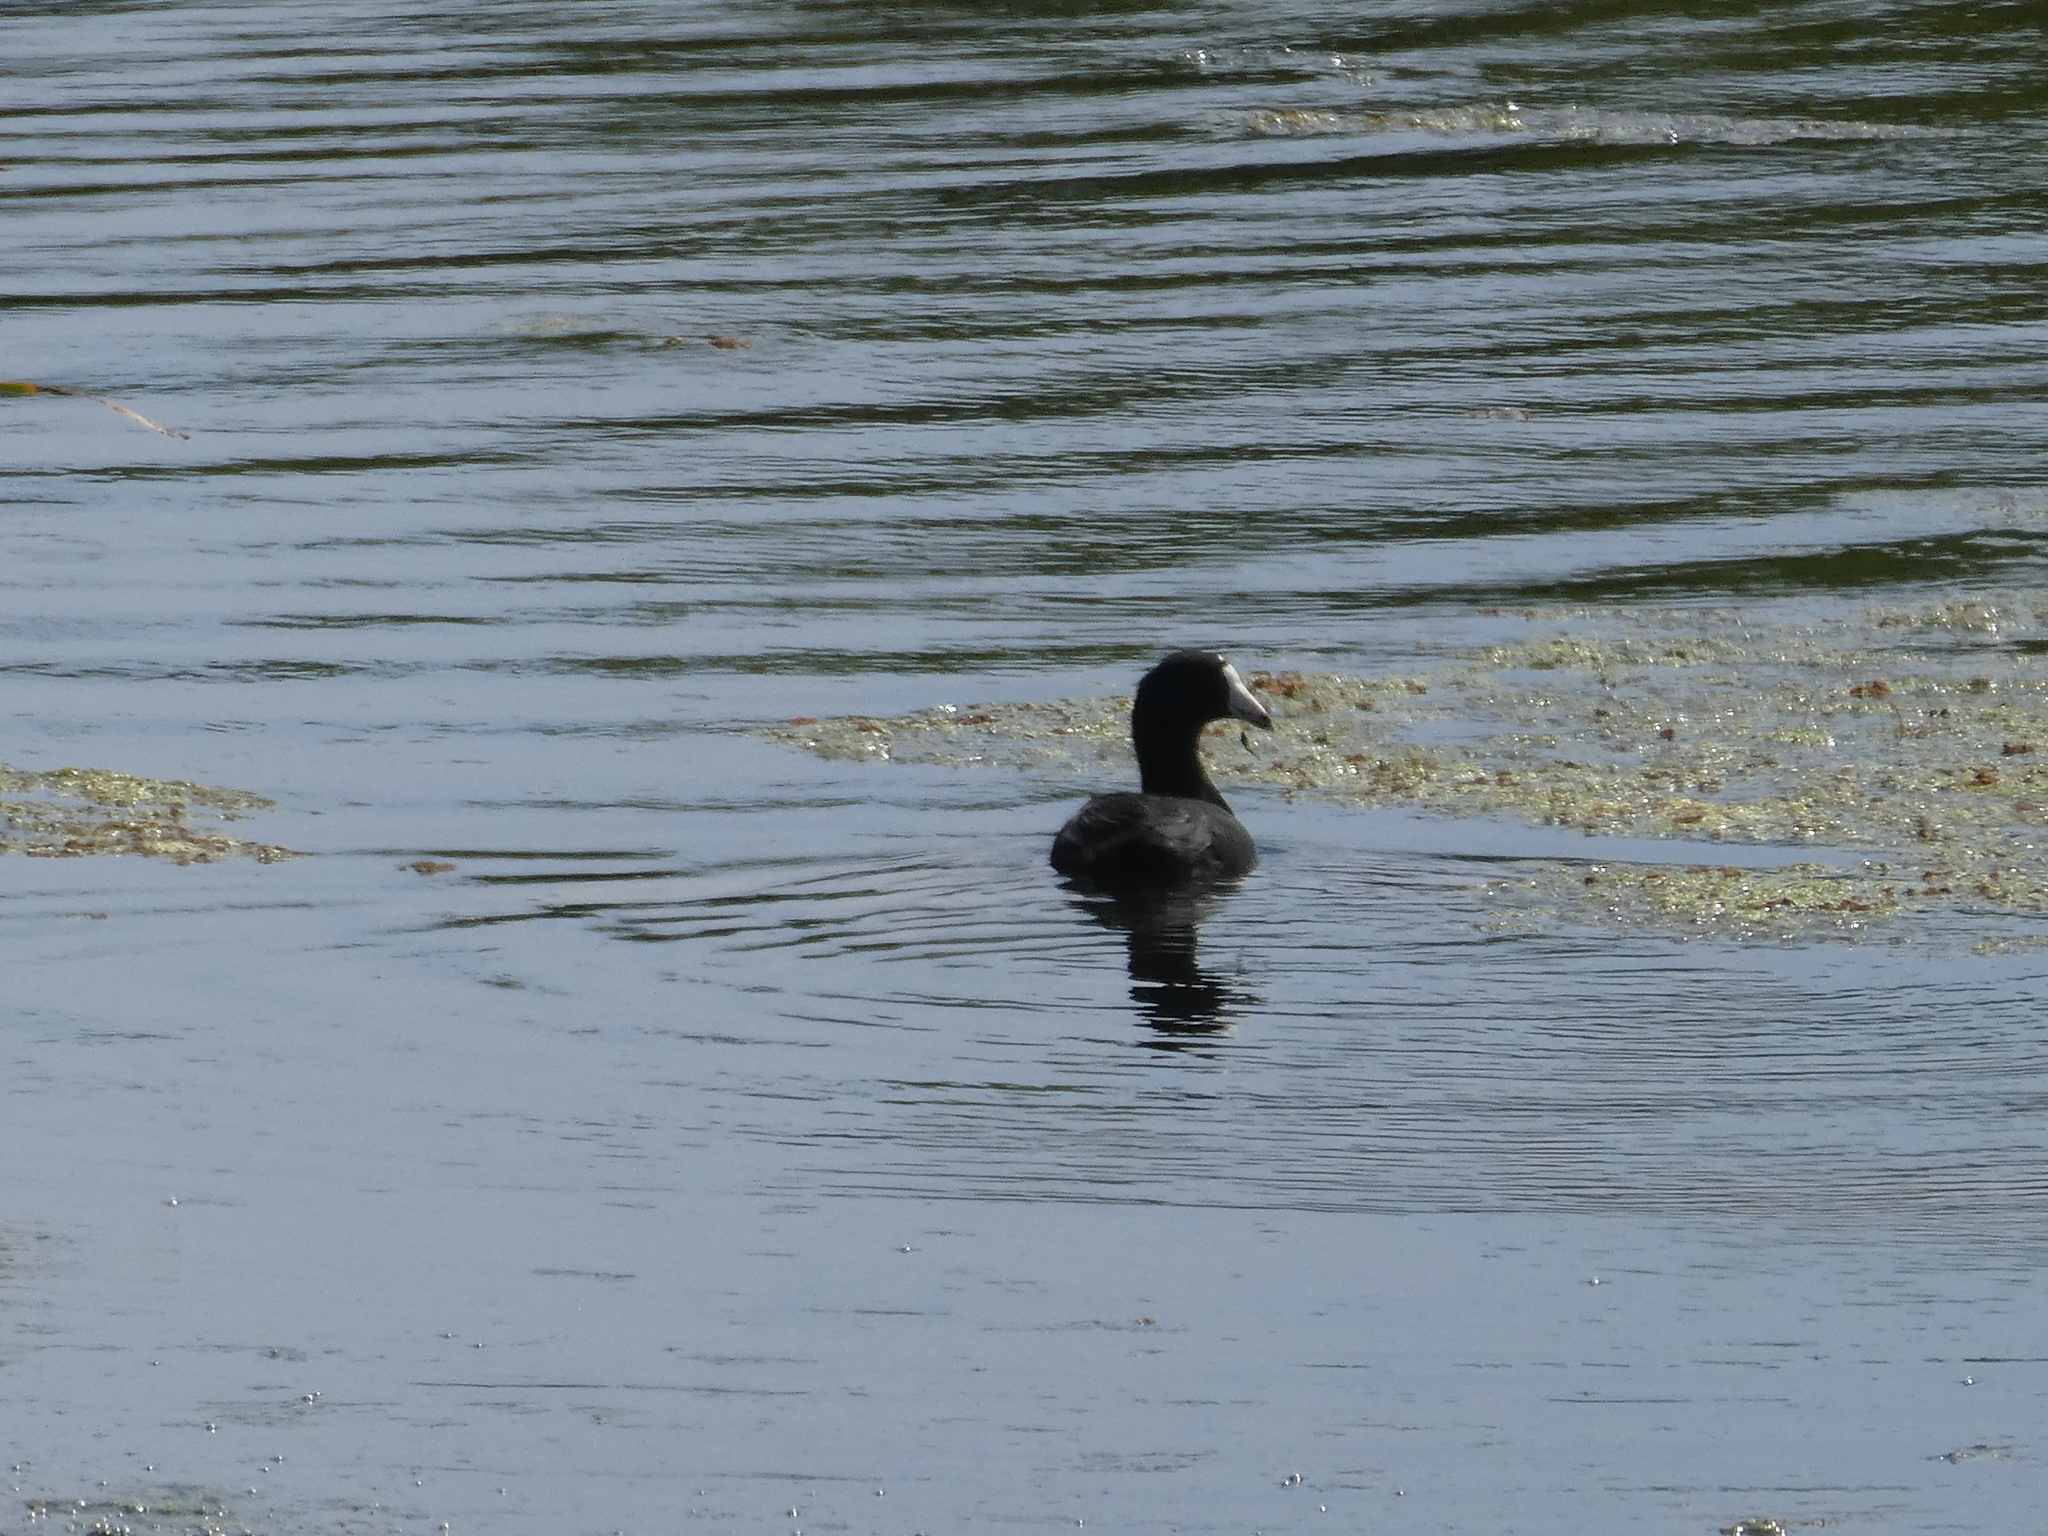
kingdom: Animalia
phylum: Chordata
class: Aves
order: Gruiformes
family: Rallidae
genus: Fulica
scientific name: Fulica americana
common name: American coot
